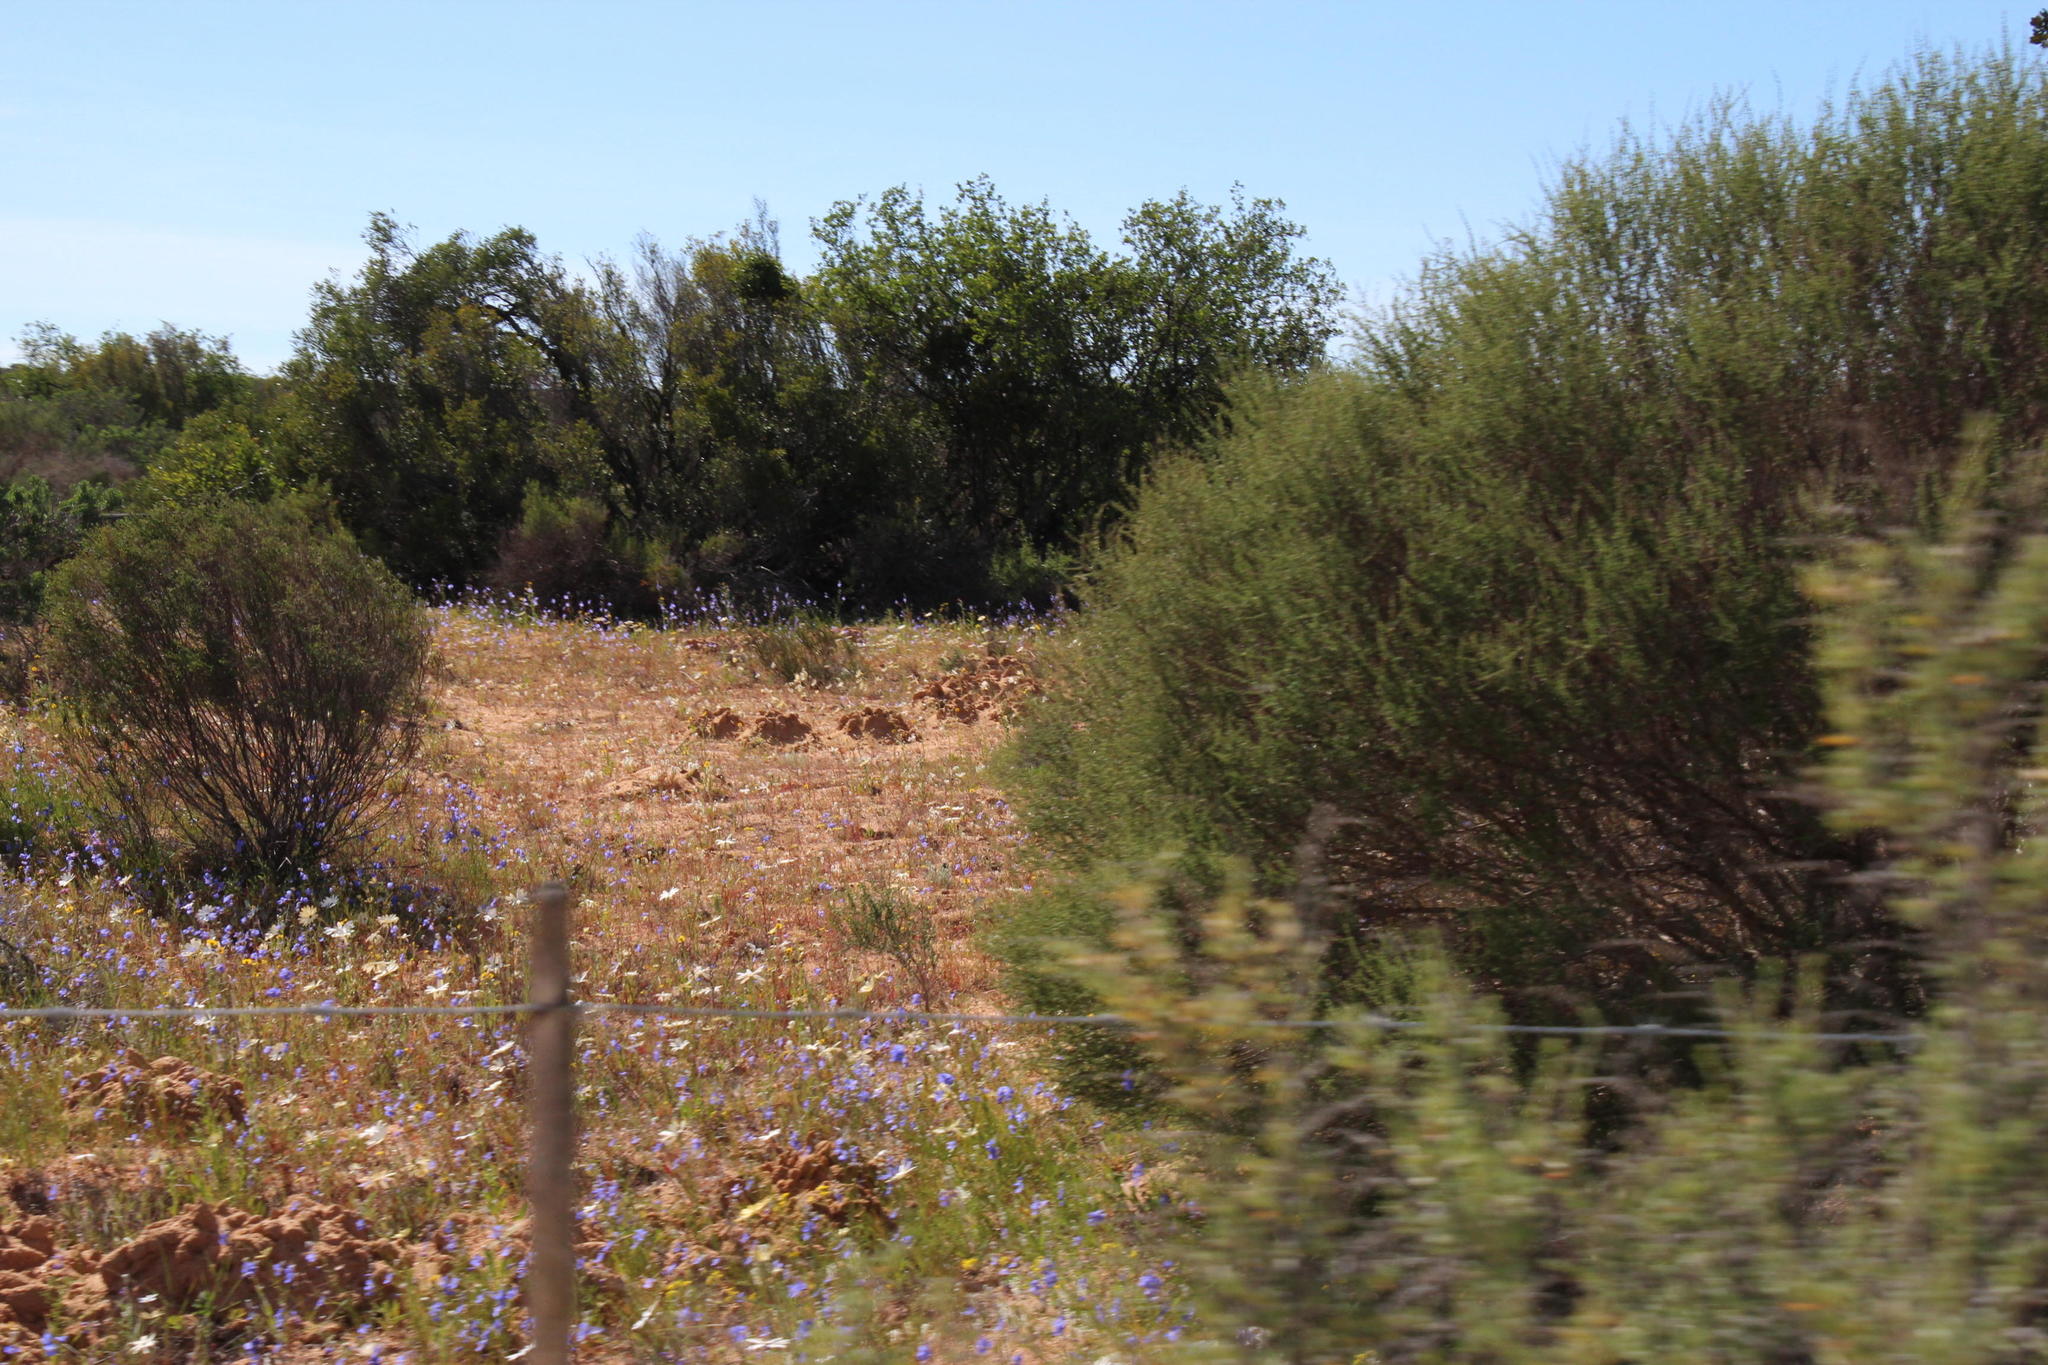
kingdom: Animalia
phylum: Chordata
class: Mammalia
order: Rodentia
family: Bathyergidae
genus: Bathyergus
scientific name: Bathyergus suillus
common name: Cape dune mole rat
